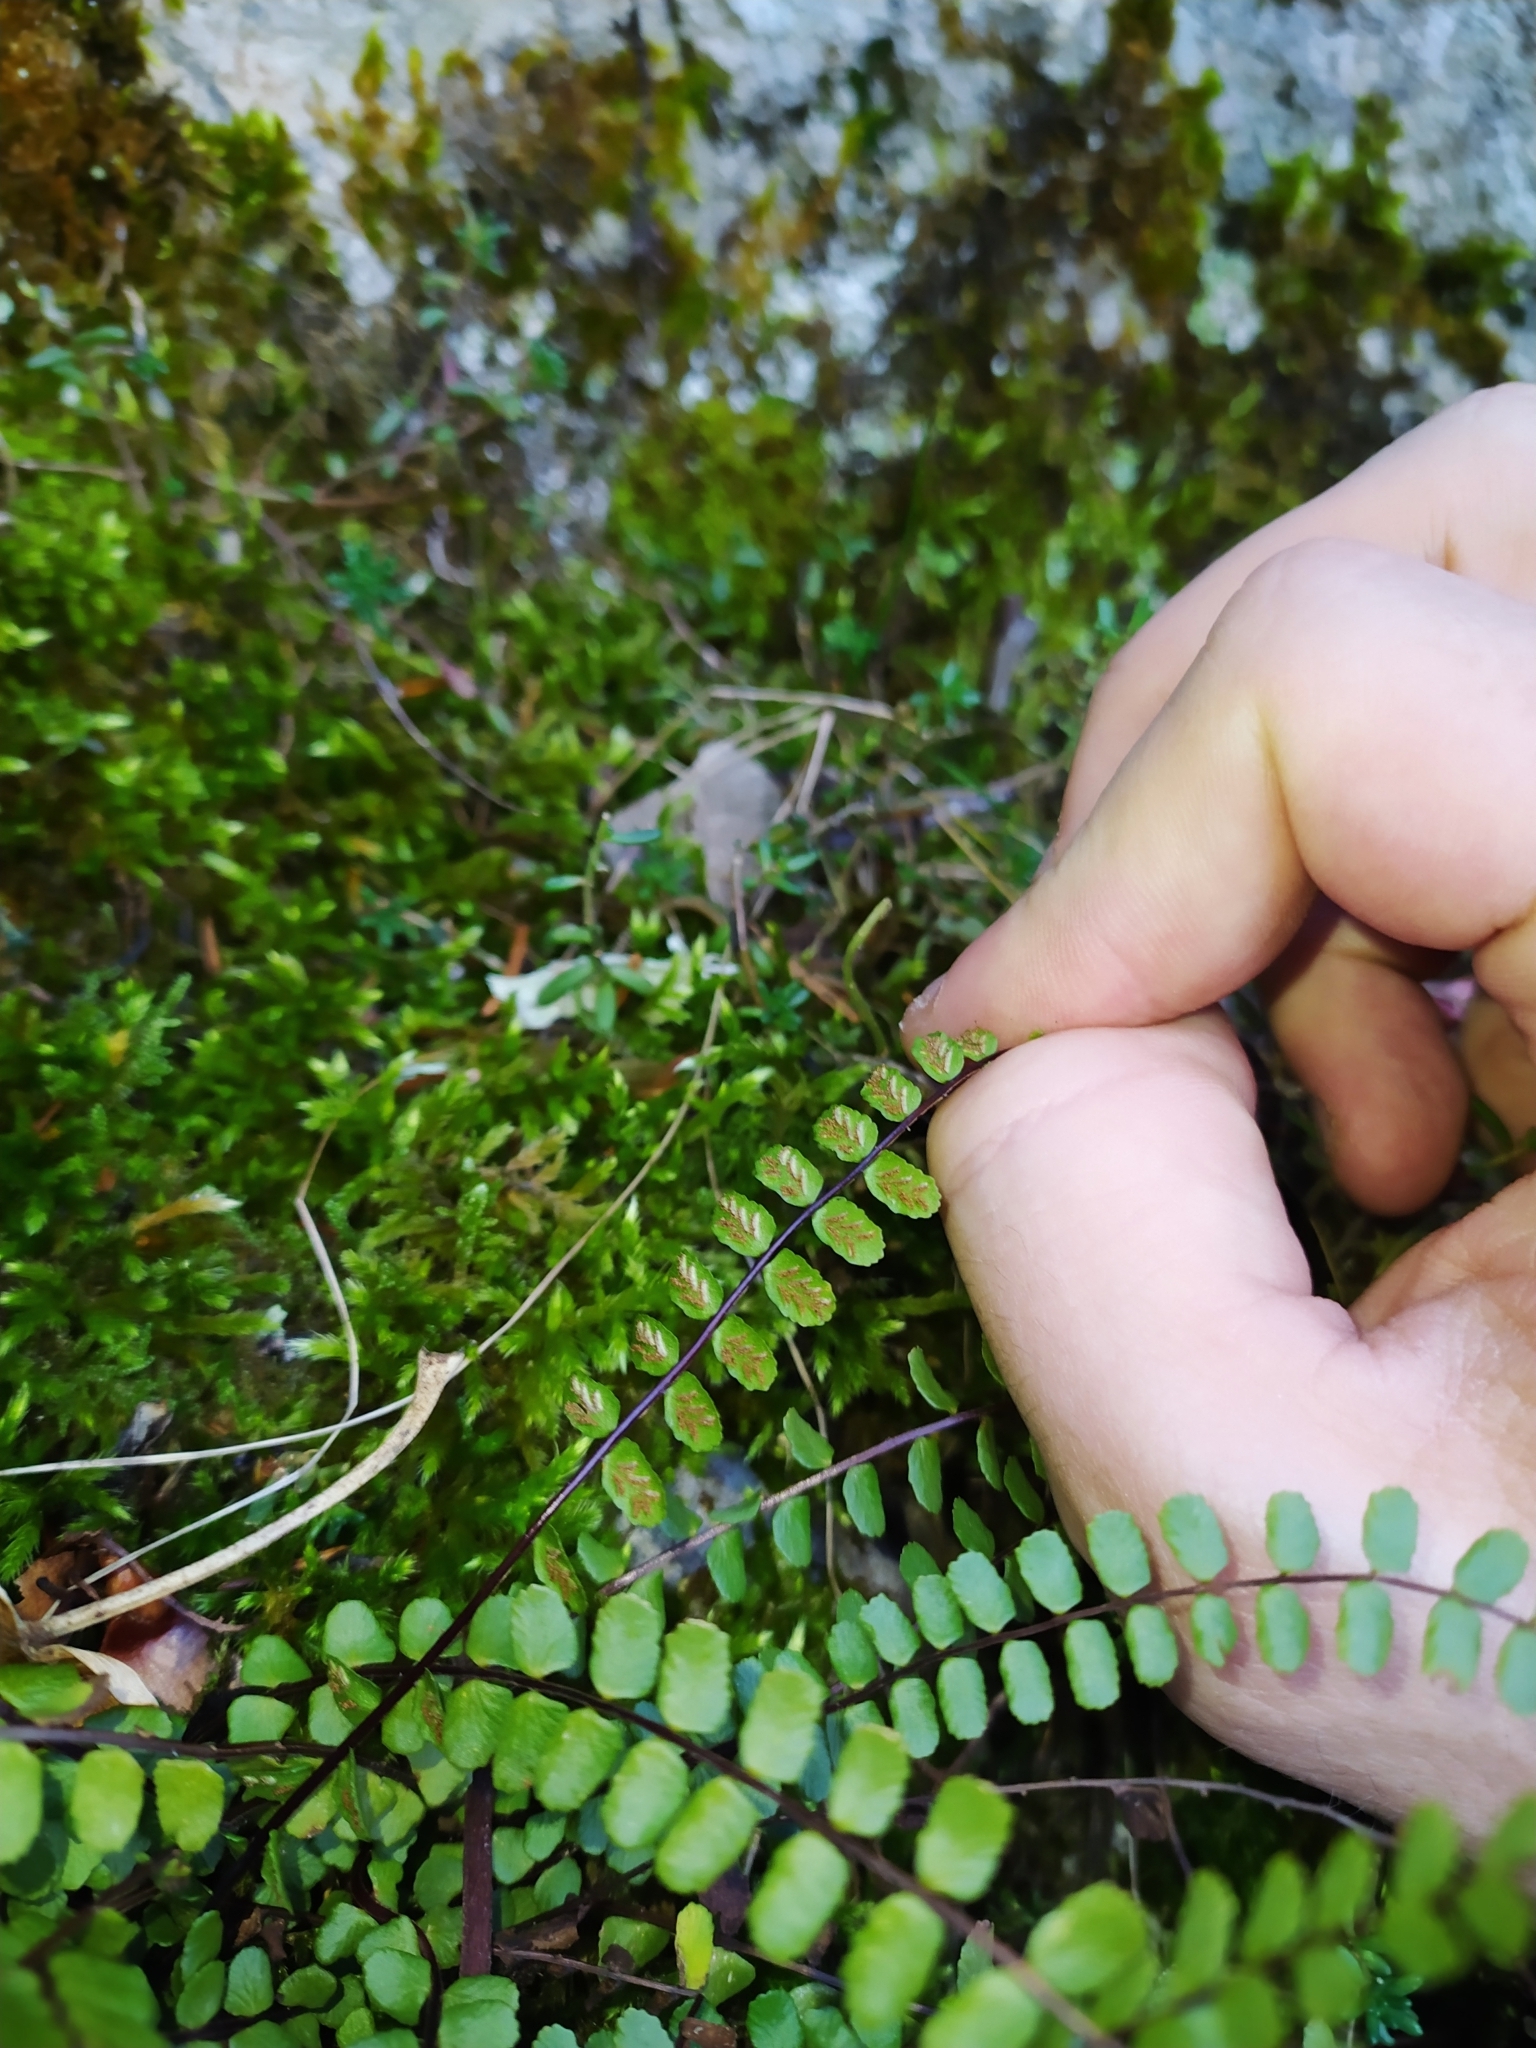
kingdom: Plantae
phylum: Tracheophyta
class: Polypodiopsida
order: Polypodiales
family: Aspleniaceae
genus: Asplenium
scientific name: Asplenium trichomanes
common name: Maidenhair spleenwort
